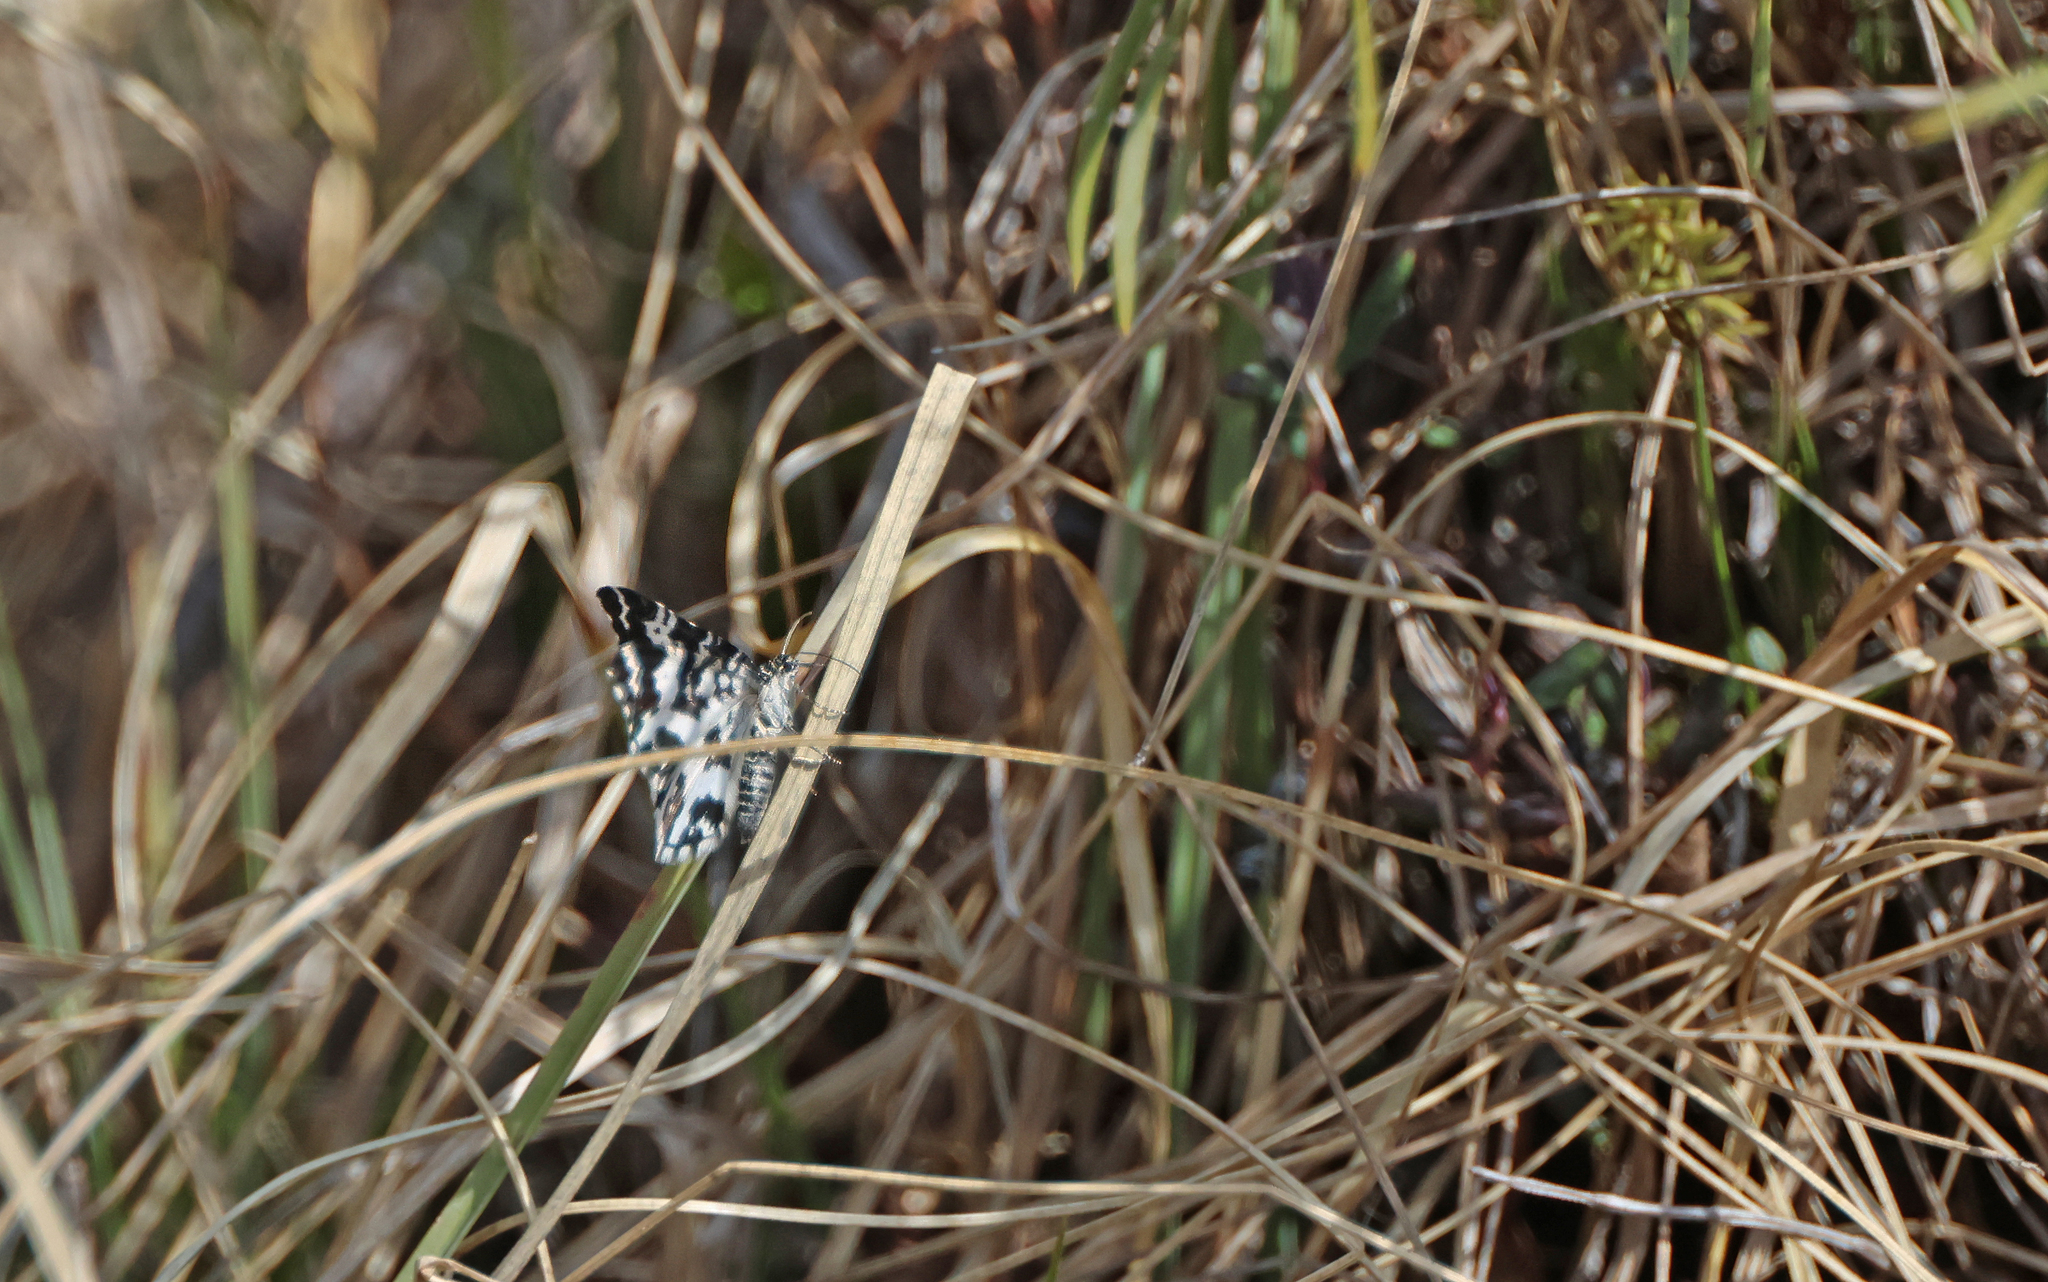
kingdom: Animalia
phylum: Arthropoda
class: Insecta
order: Lepidoptera
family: Geometridae
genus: Rheumaptera
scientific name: Rheumaptera hastata
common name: Argent & sable
